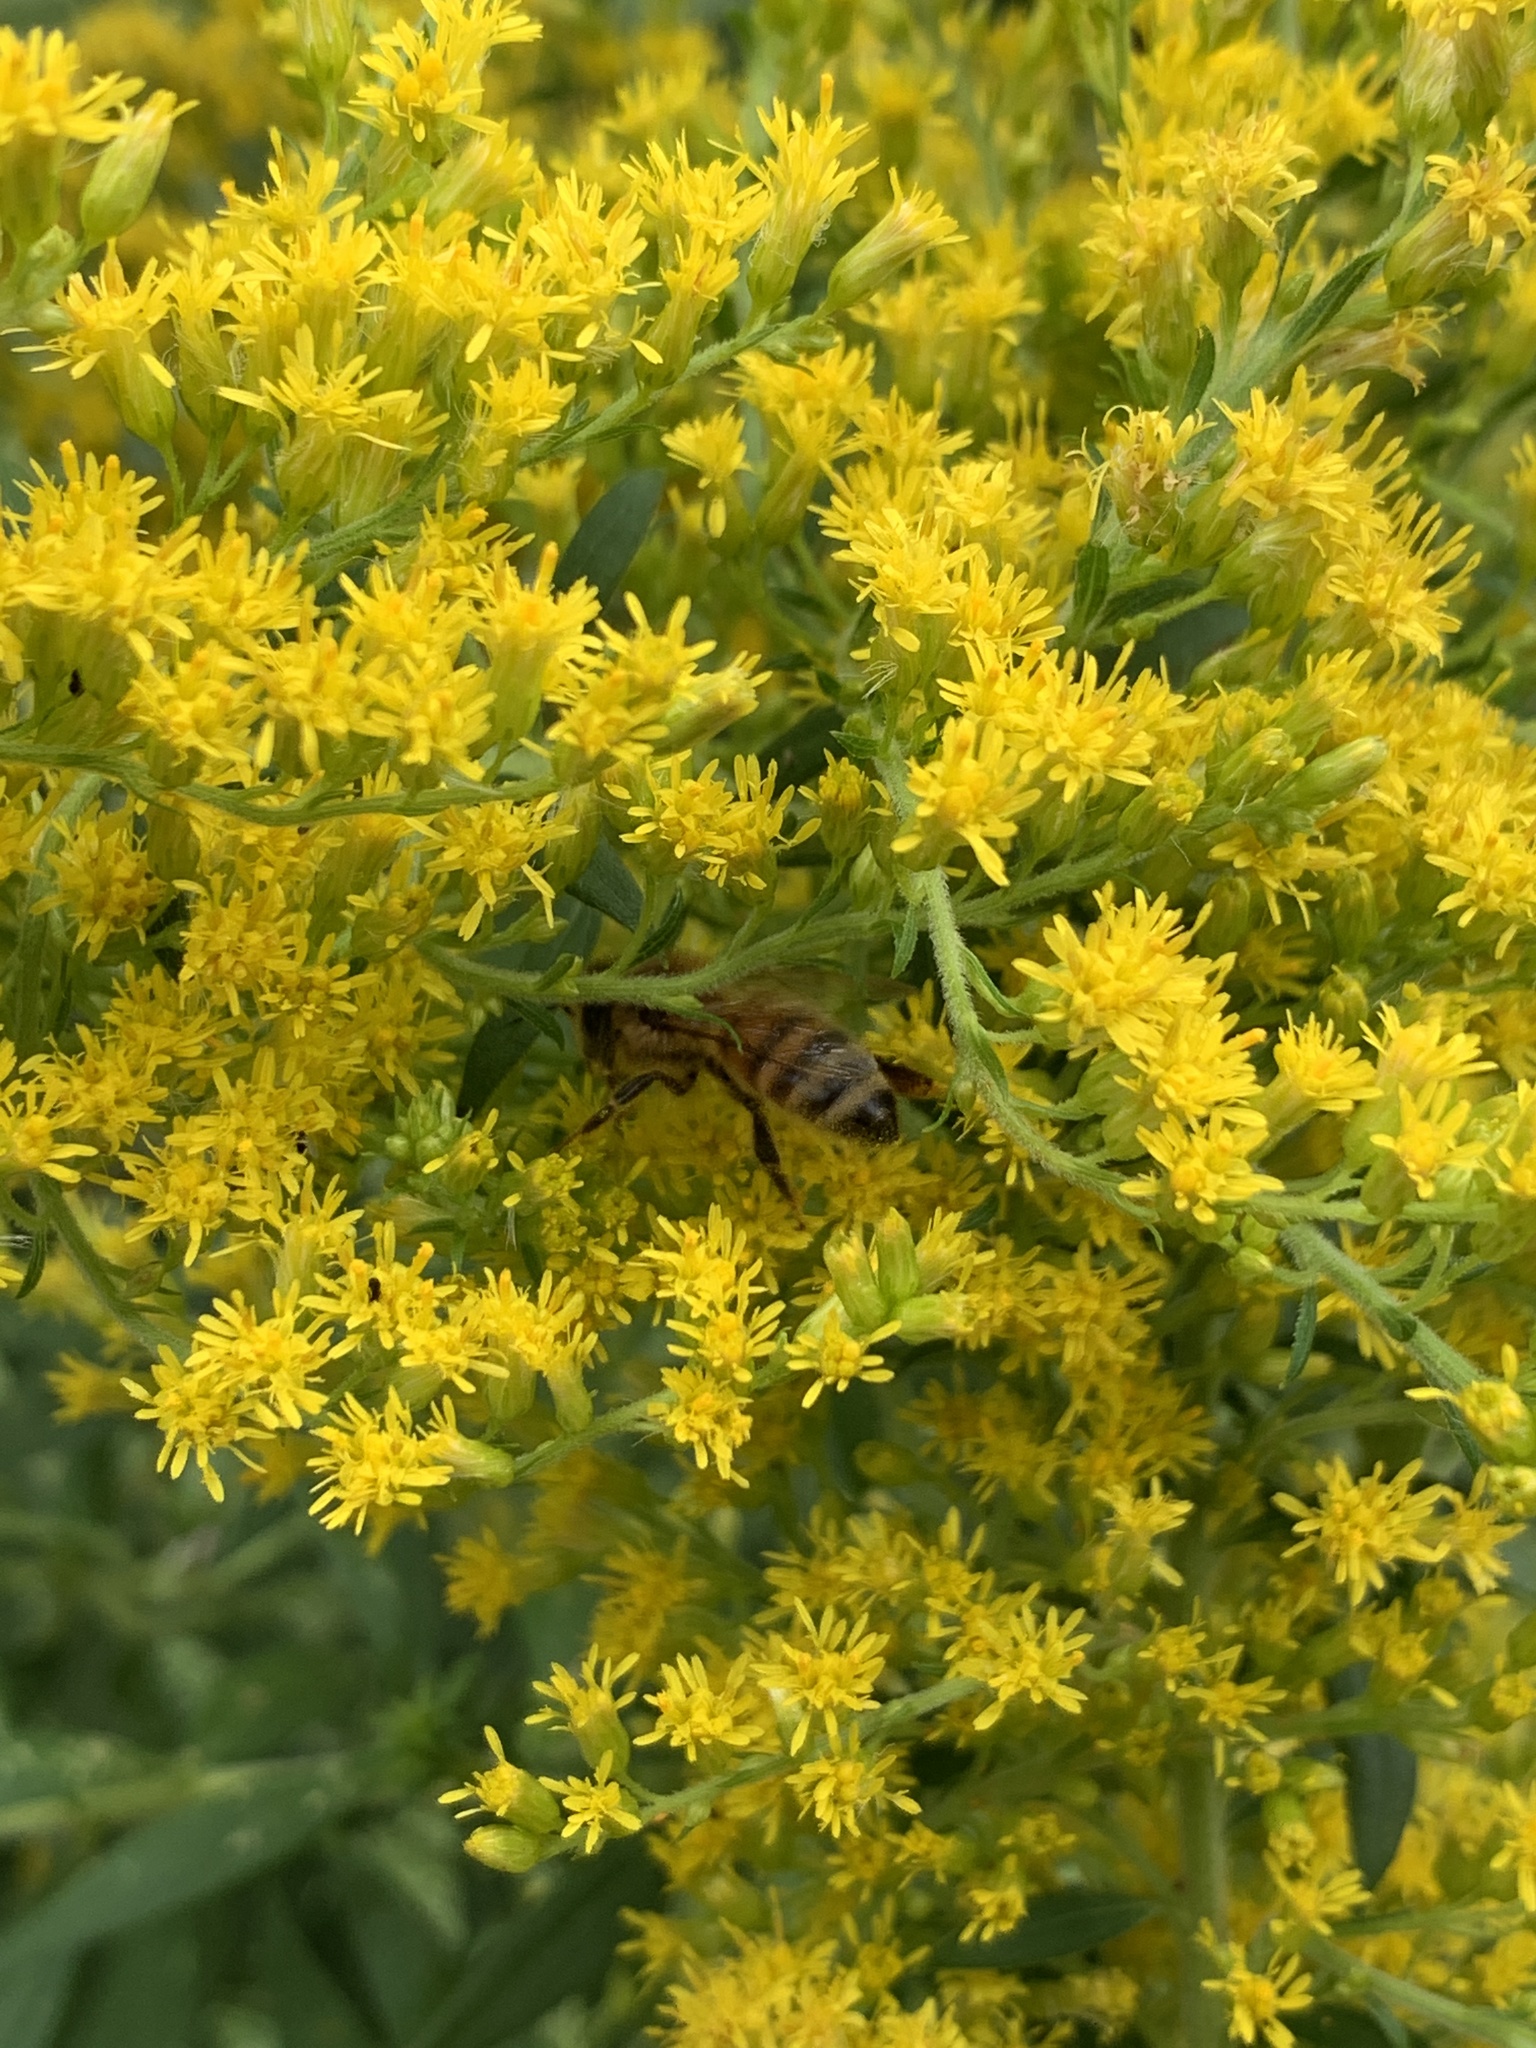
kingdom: Animalia
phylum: Arthropoda
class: Insecta
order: Hymenoptera
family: Apidae
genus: Apis
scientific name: Apis mellifera
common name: Honey bee
